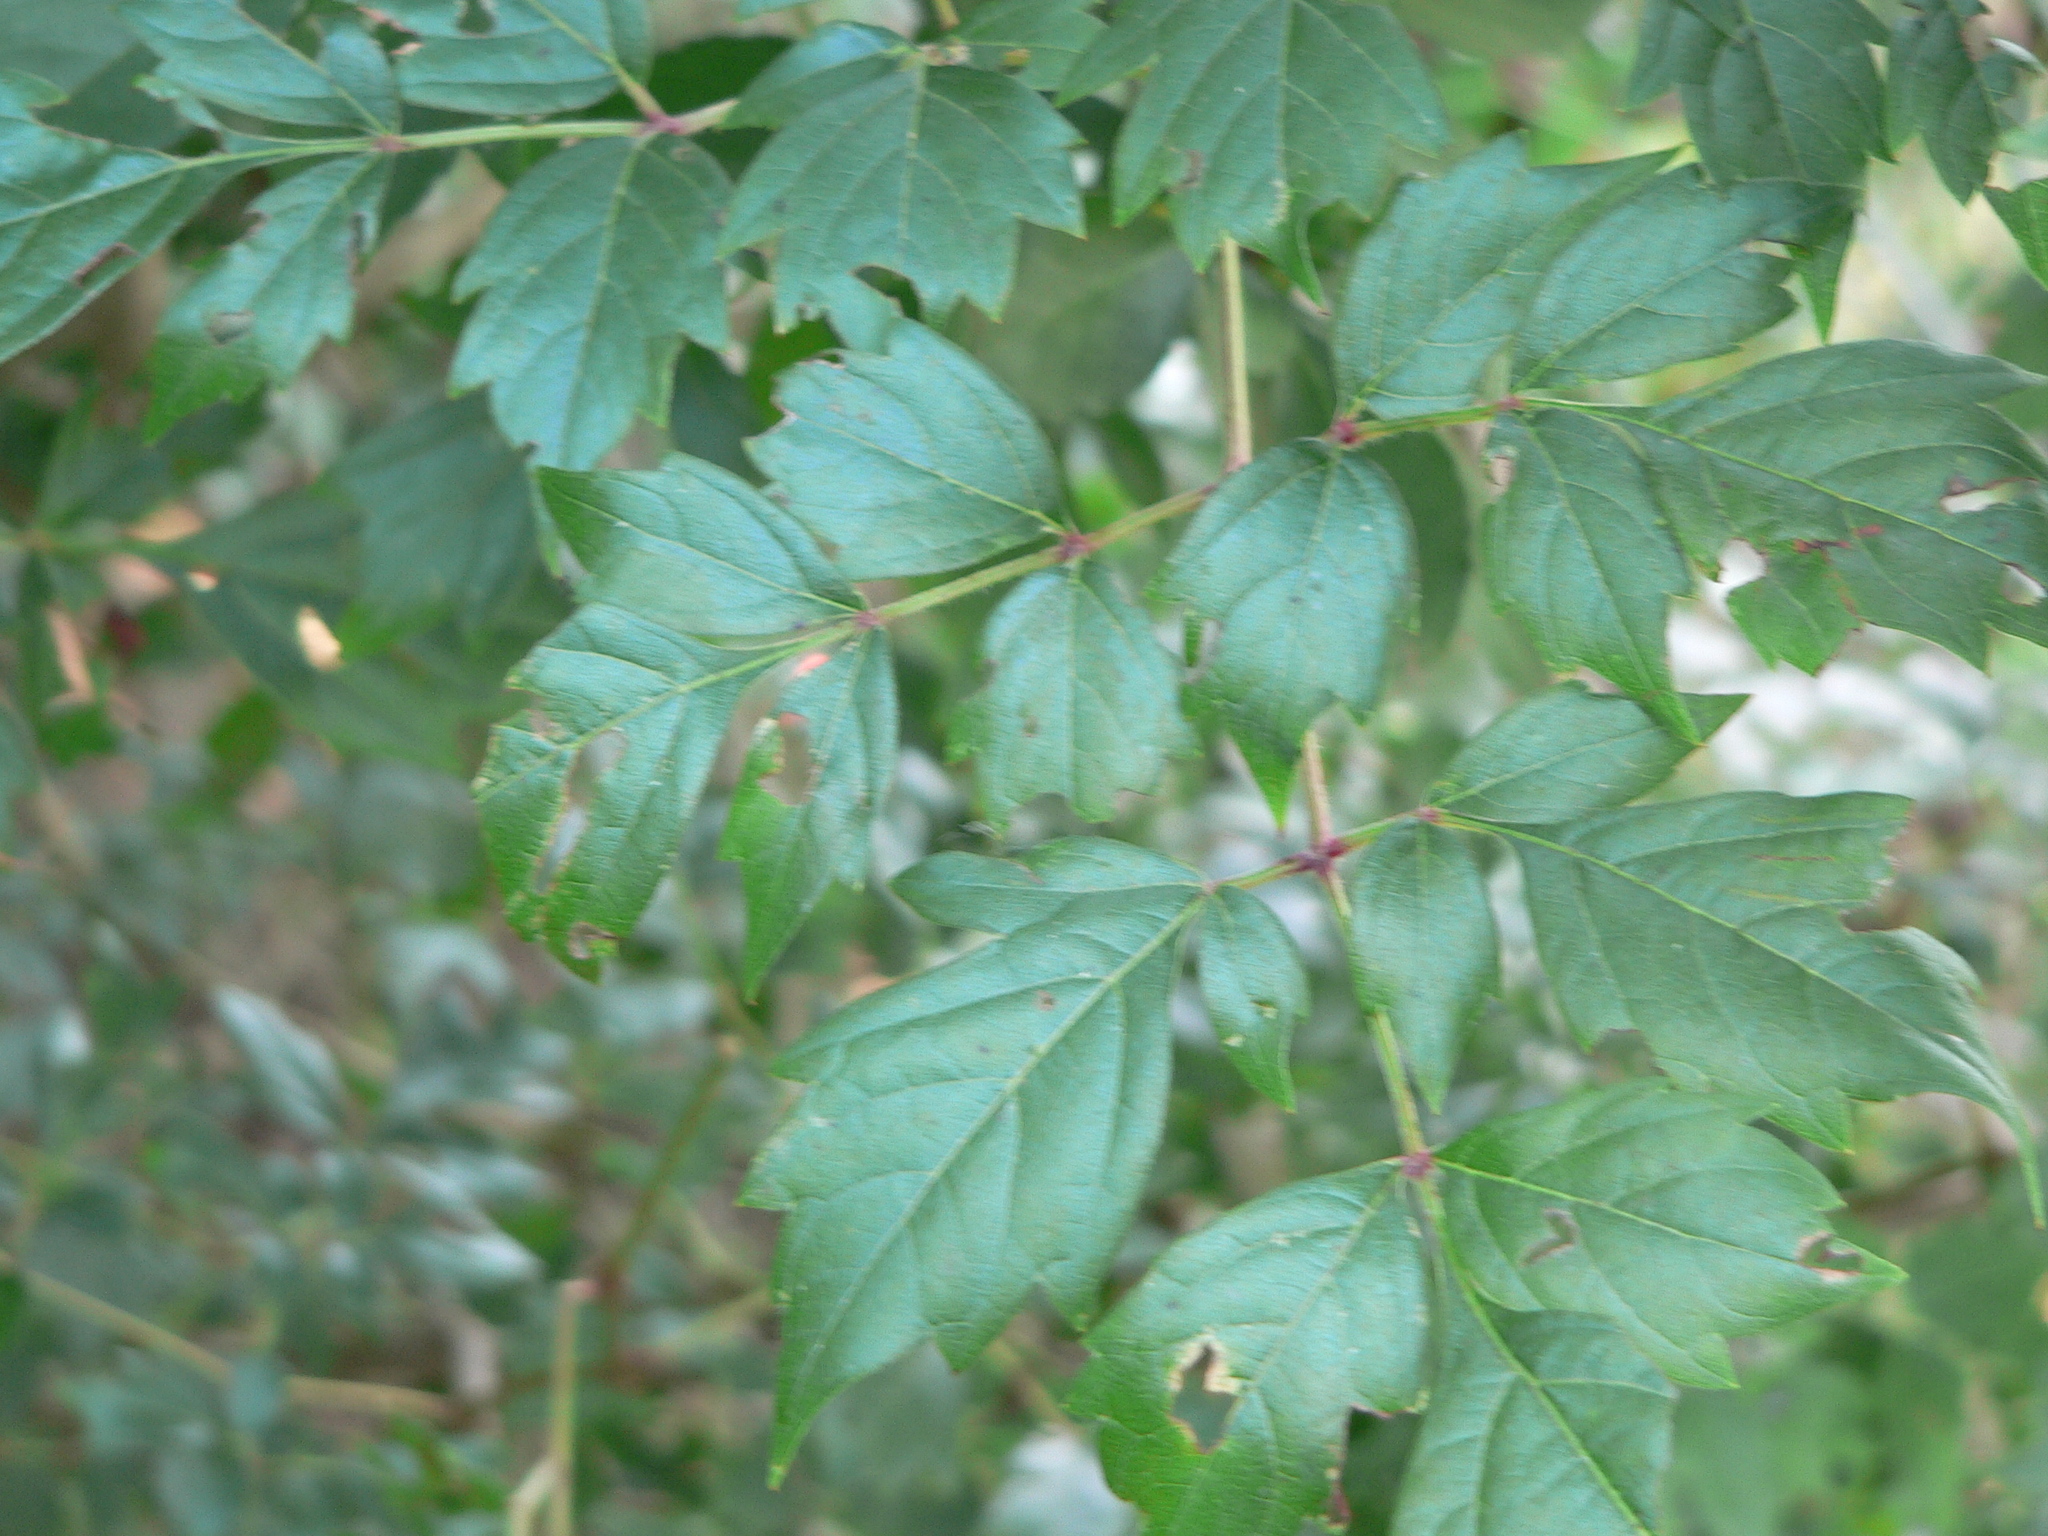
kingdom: Plantae
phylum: Tracheophyta
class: Magnoliopsida
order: Vitales
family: Vitaceae
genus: Nekemias
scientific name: Nekemias arborea
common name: Peppervine
